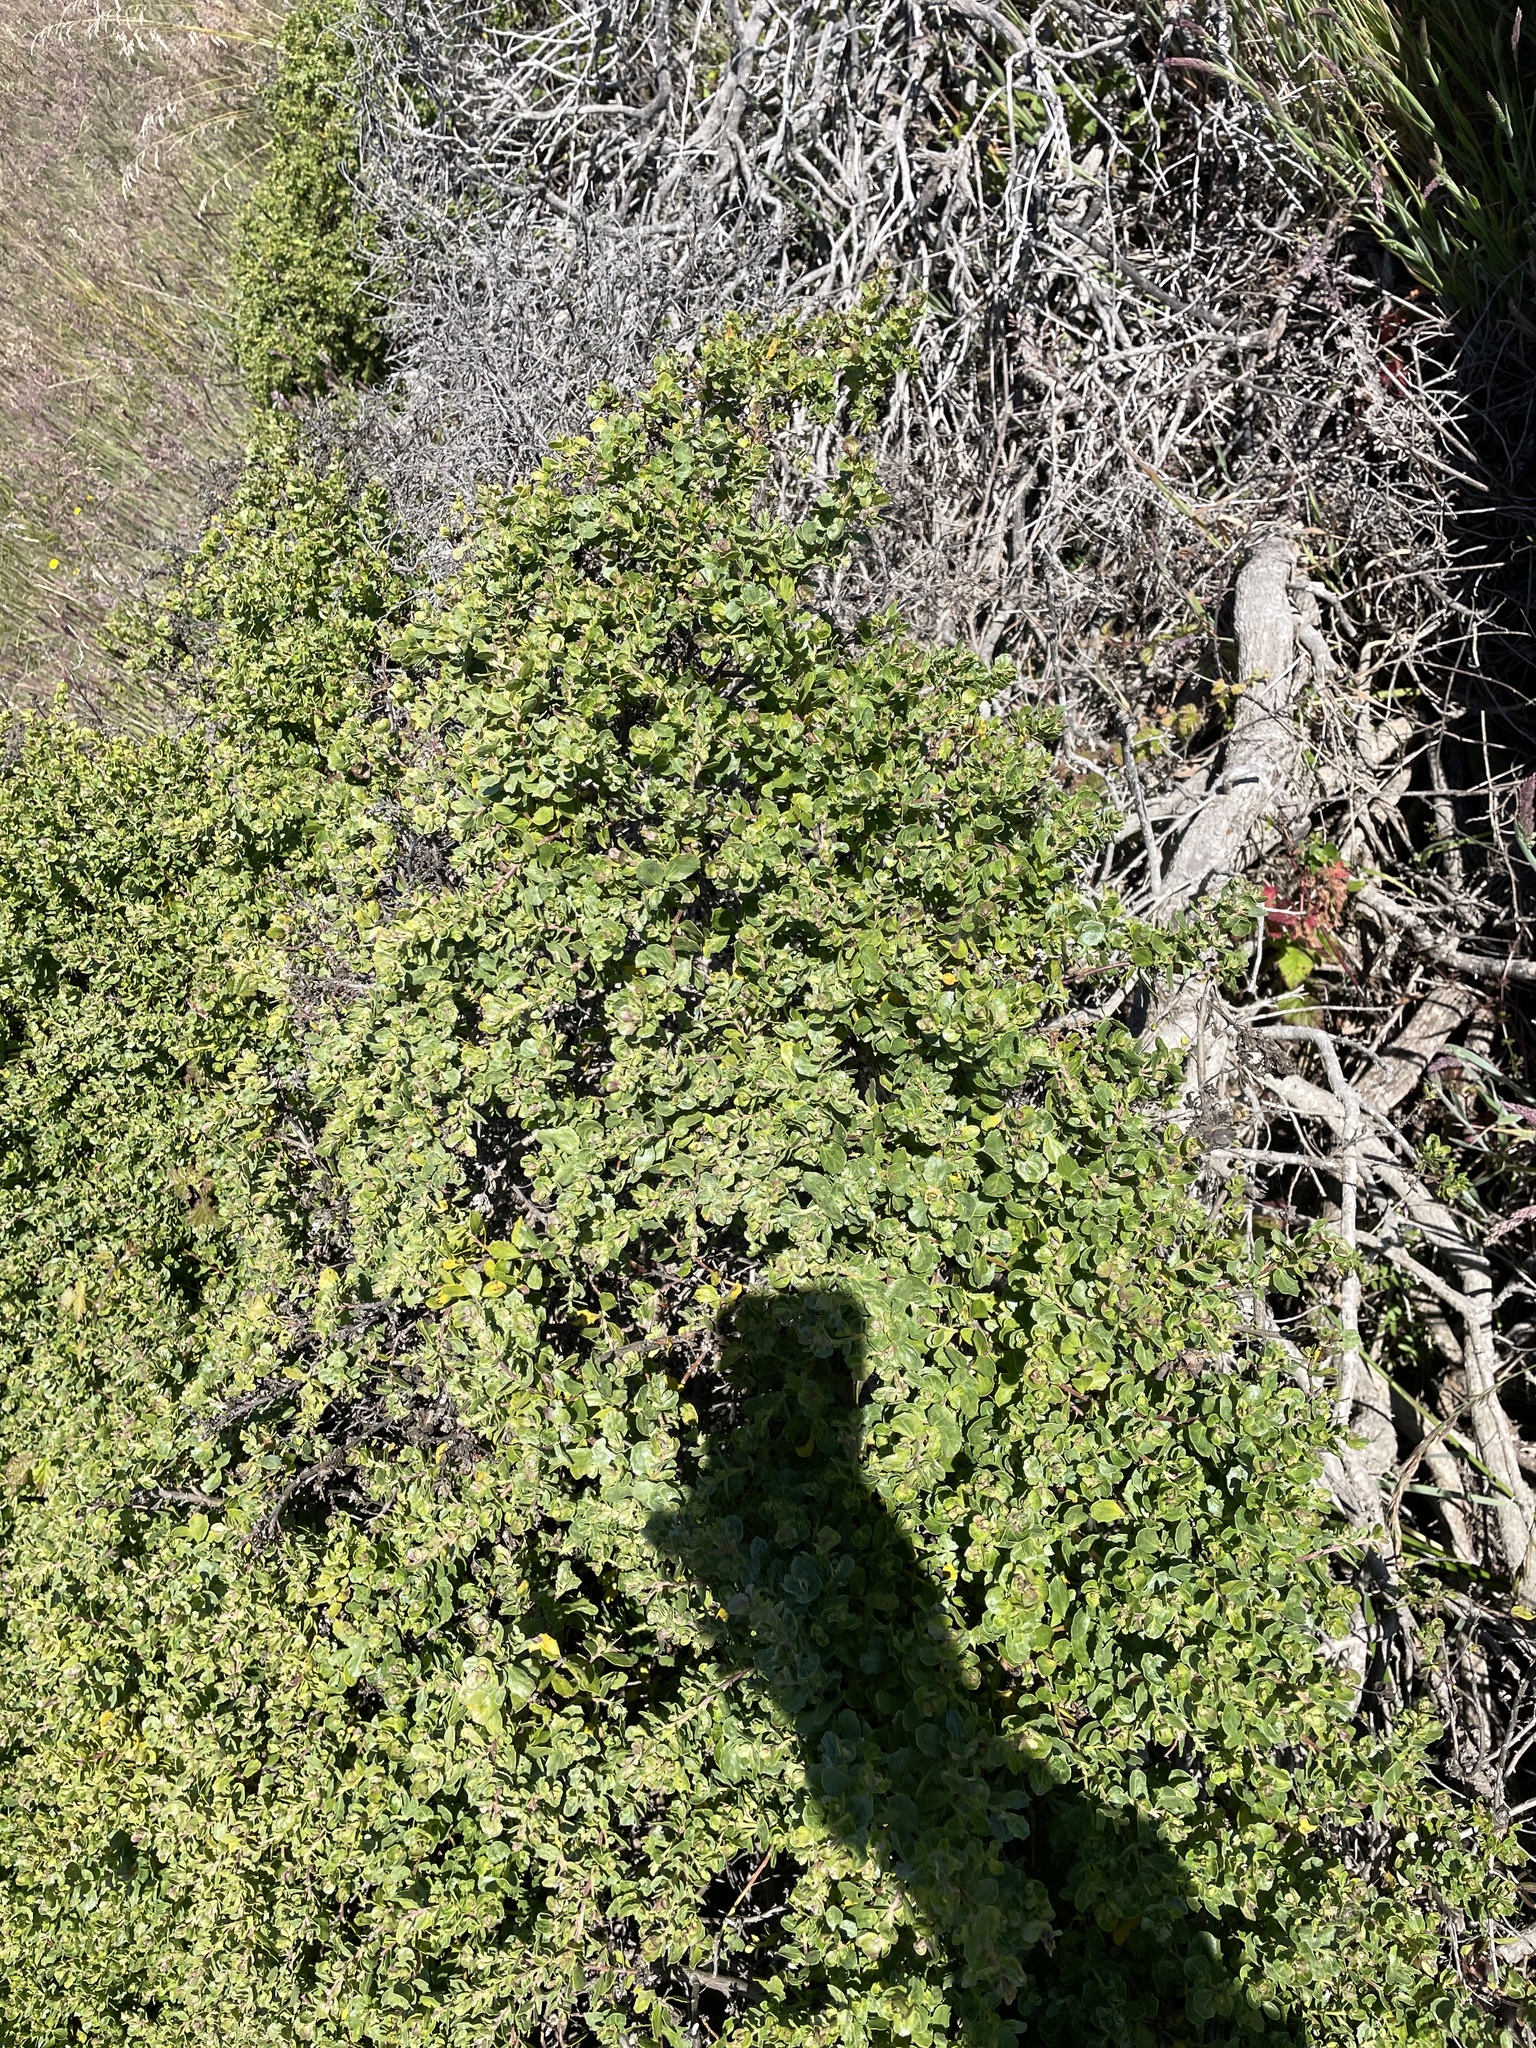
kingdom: Plantae
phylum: Tracheophyta
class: Magnoliopsida
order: Asterales
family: Asteraceae
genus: Baccharis
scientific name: Baccharis pilularis
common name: Coyotebrush
